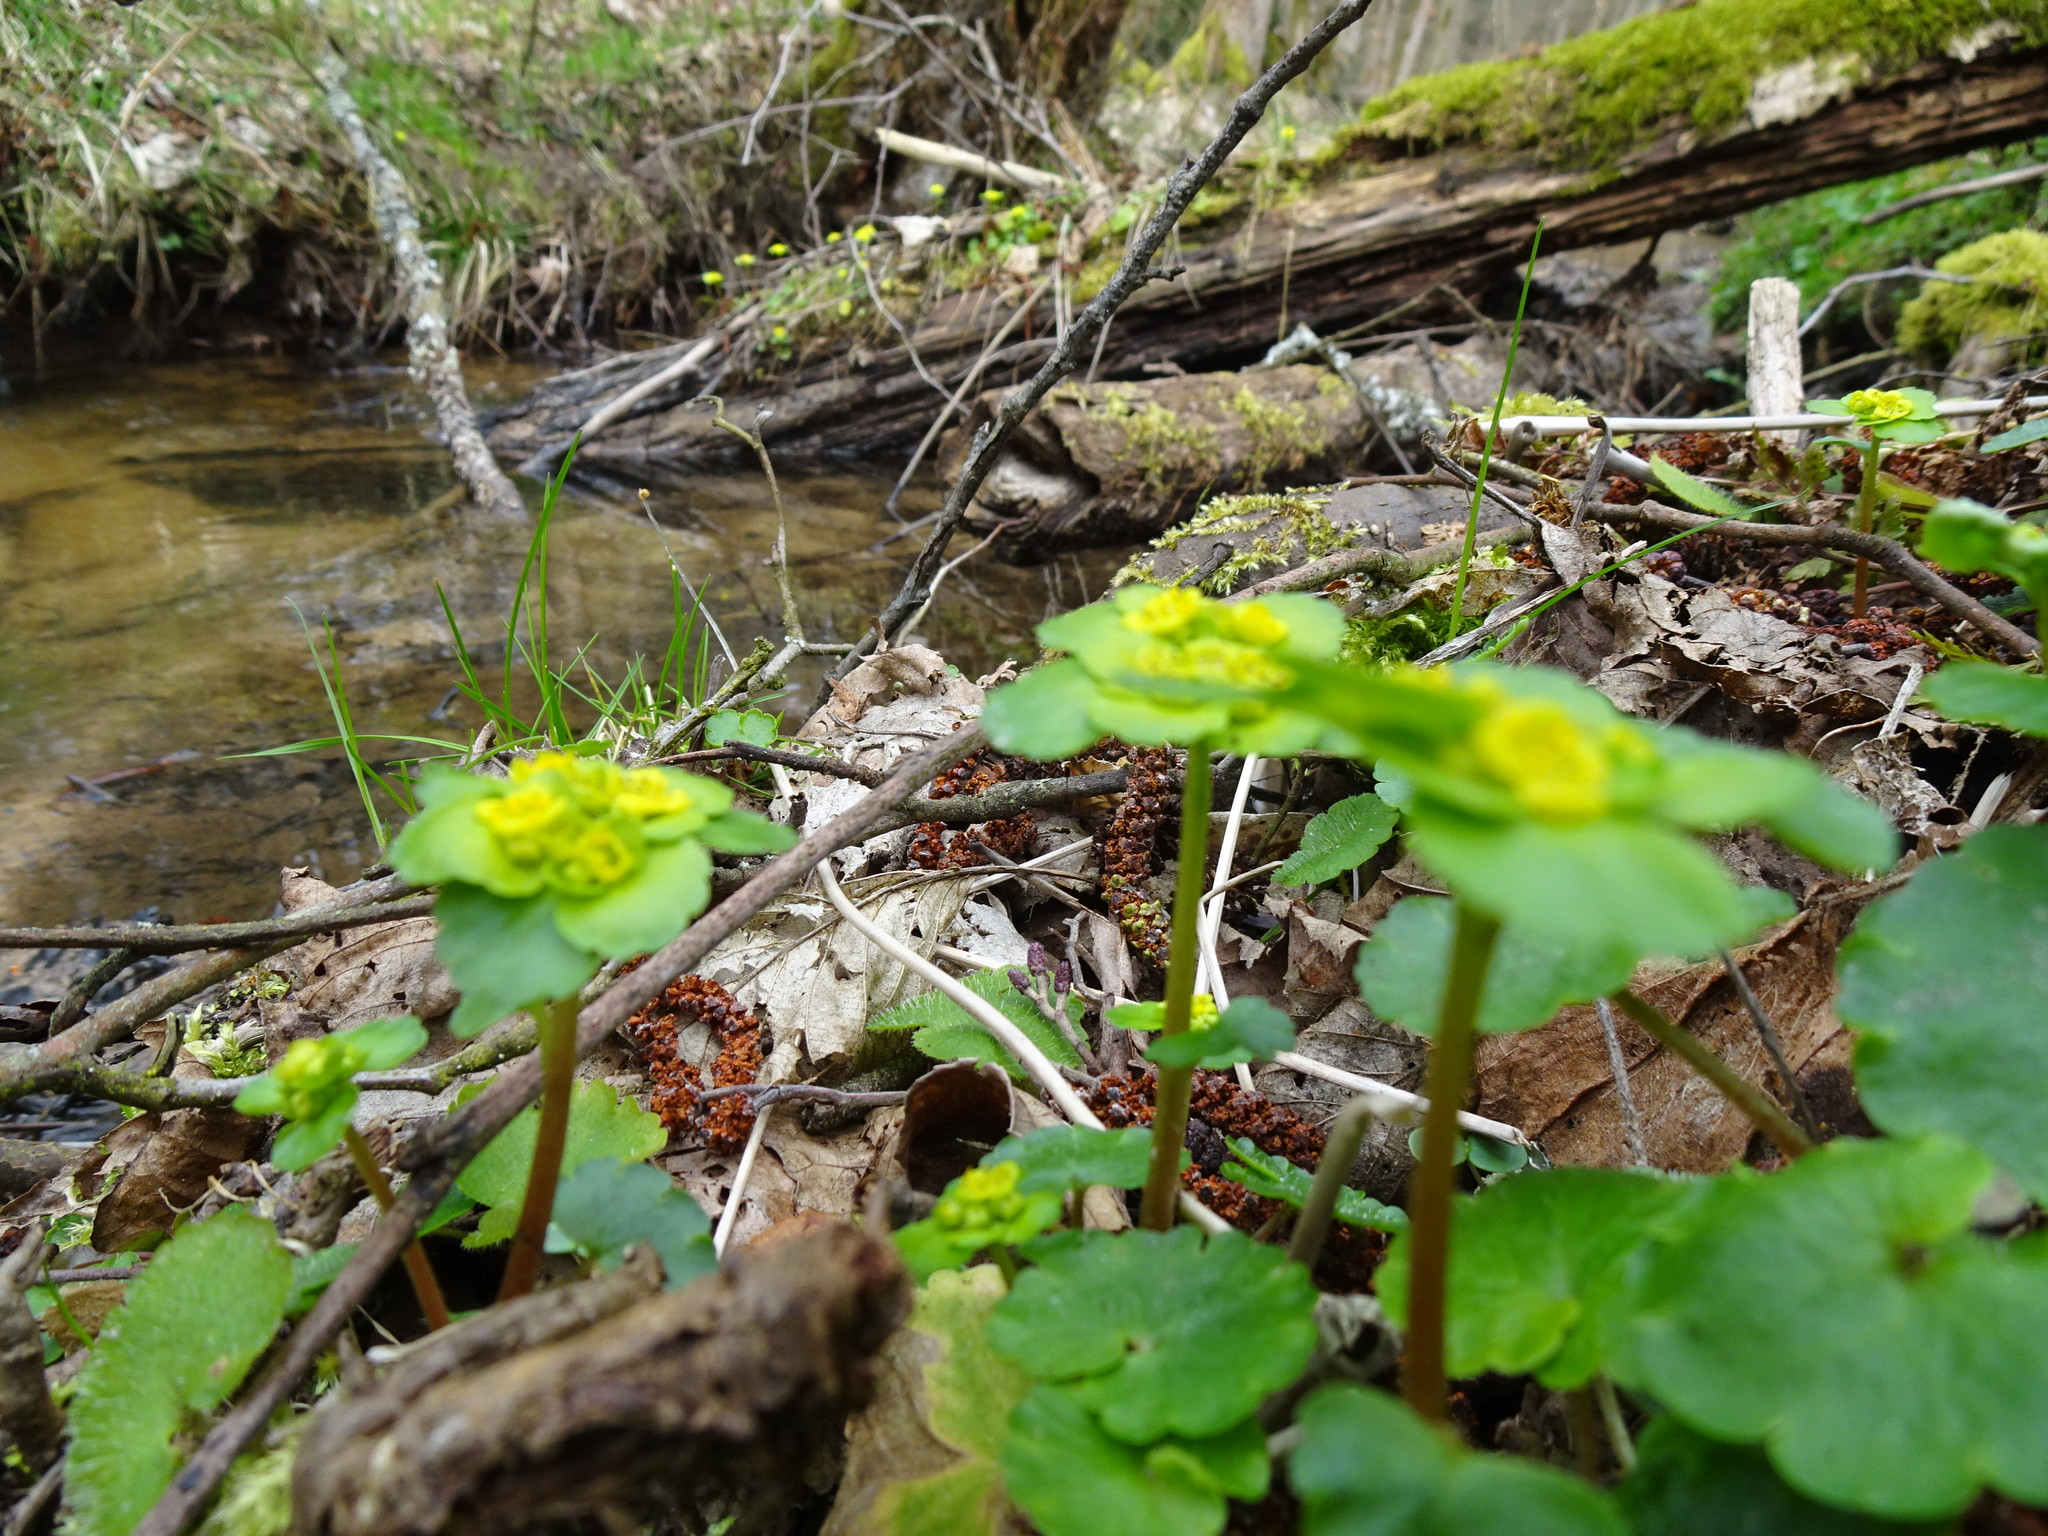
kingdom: Plantae
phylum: Tracheophyta
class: Magnoliopsida
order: Saxifragales
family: Saxifragaceae
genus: Chrysosplenium
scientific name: Chrysosplenium alternifolium
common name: Alternate-leaved golden-saxifrage
